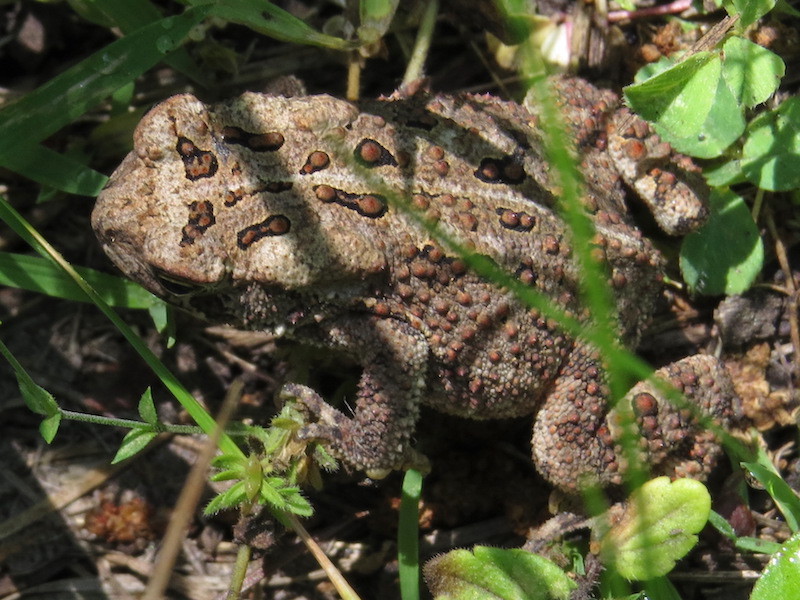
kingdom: Animalia
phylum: Chordata
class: Amphibia
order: Anura
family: Bufonidae
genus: Anaxyrus
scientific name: Anaxyrus americanus
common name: American toad
